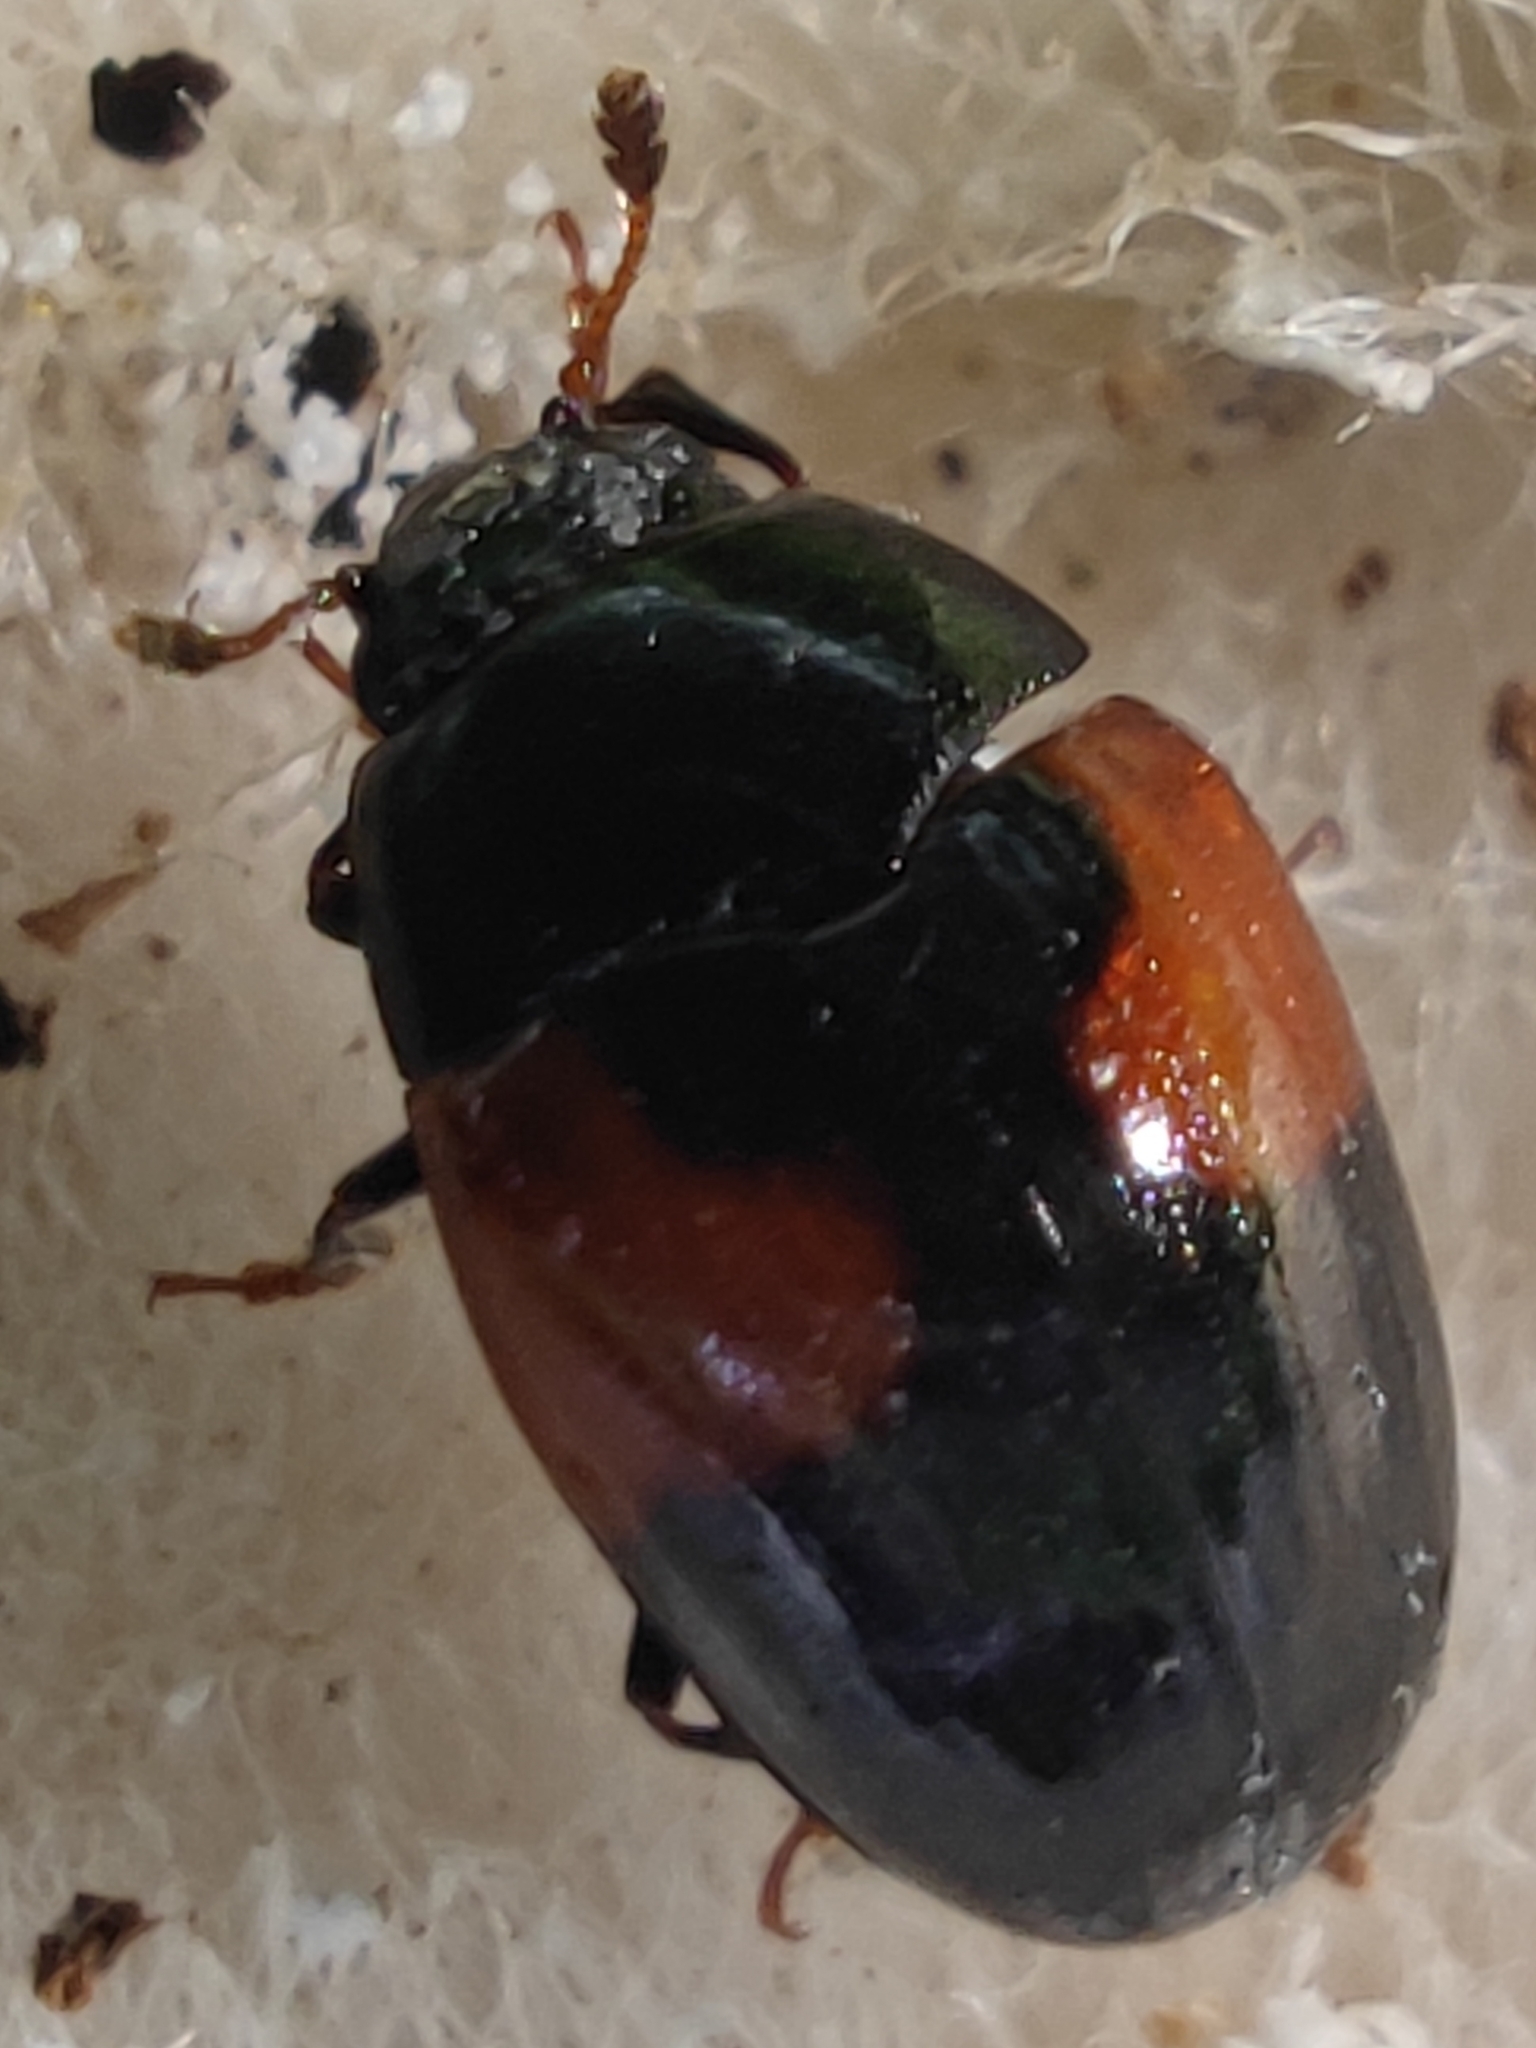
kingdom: Animalia
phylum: Arthropoda
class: Insecta
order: Coleoptera
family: Erotylidae
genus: Tritoma
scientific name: Tritoma bipustulata
